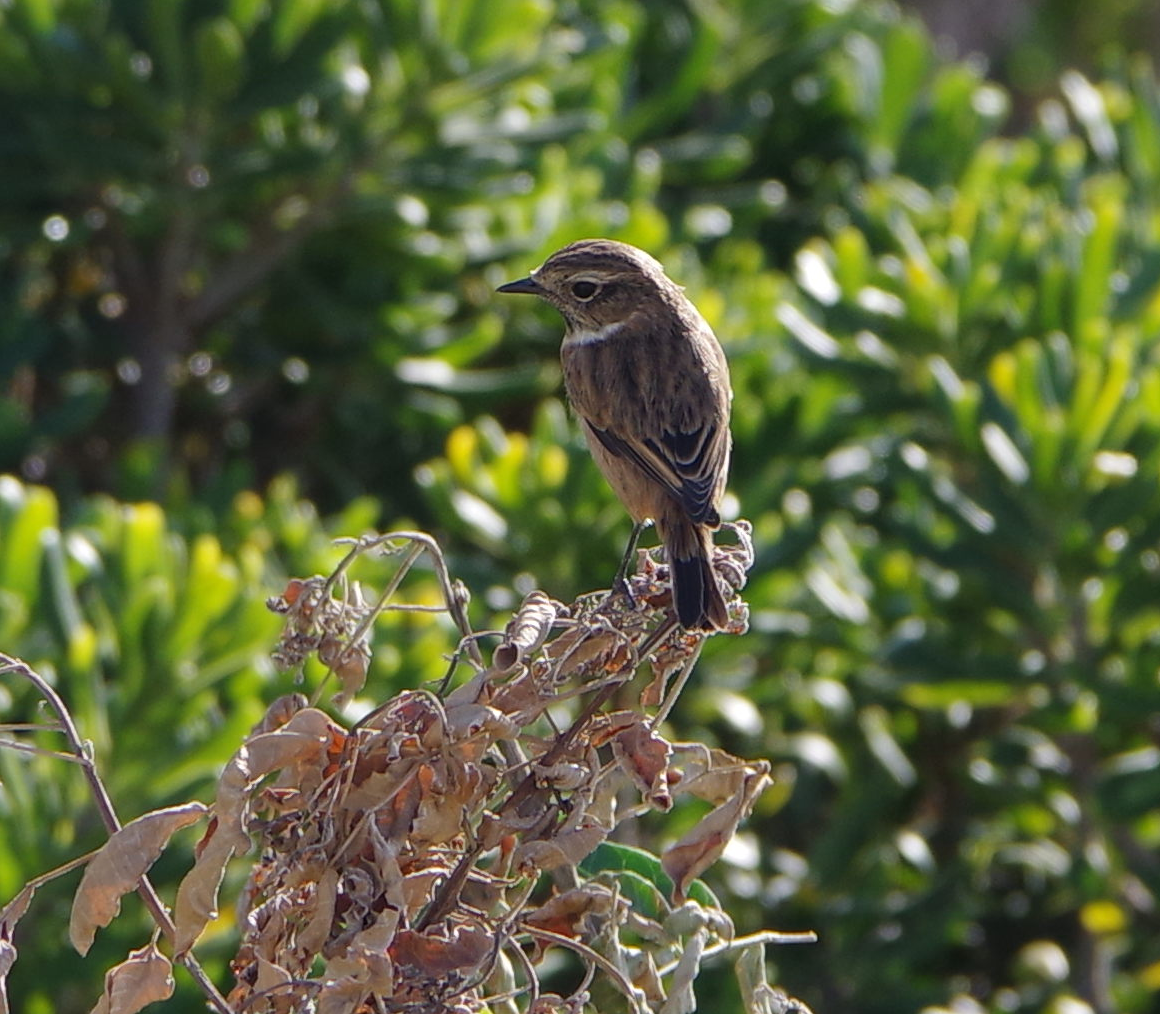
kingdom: Animalia
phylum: Chordata
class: Aves
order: Passeriformes
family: Muscicapidae
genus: Saxicola
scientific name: Saxicola rubetra
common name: Whinchat
